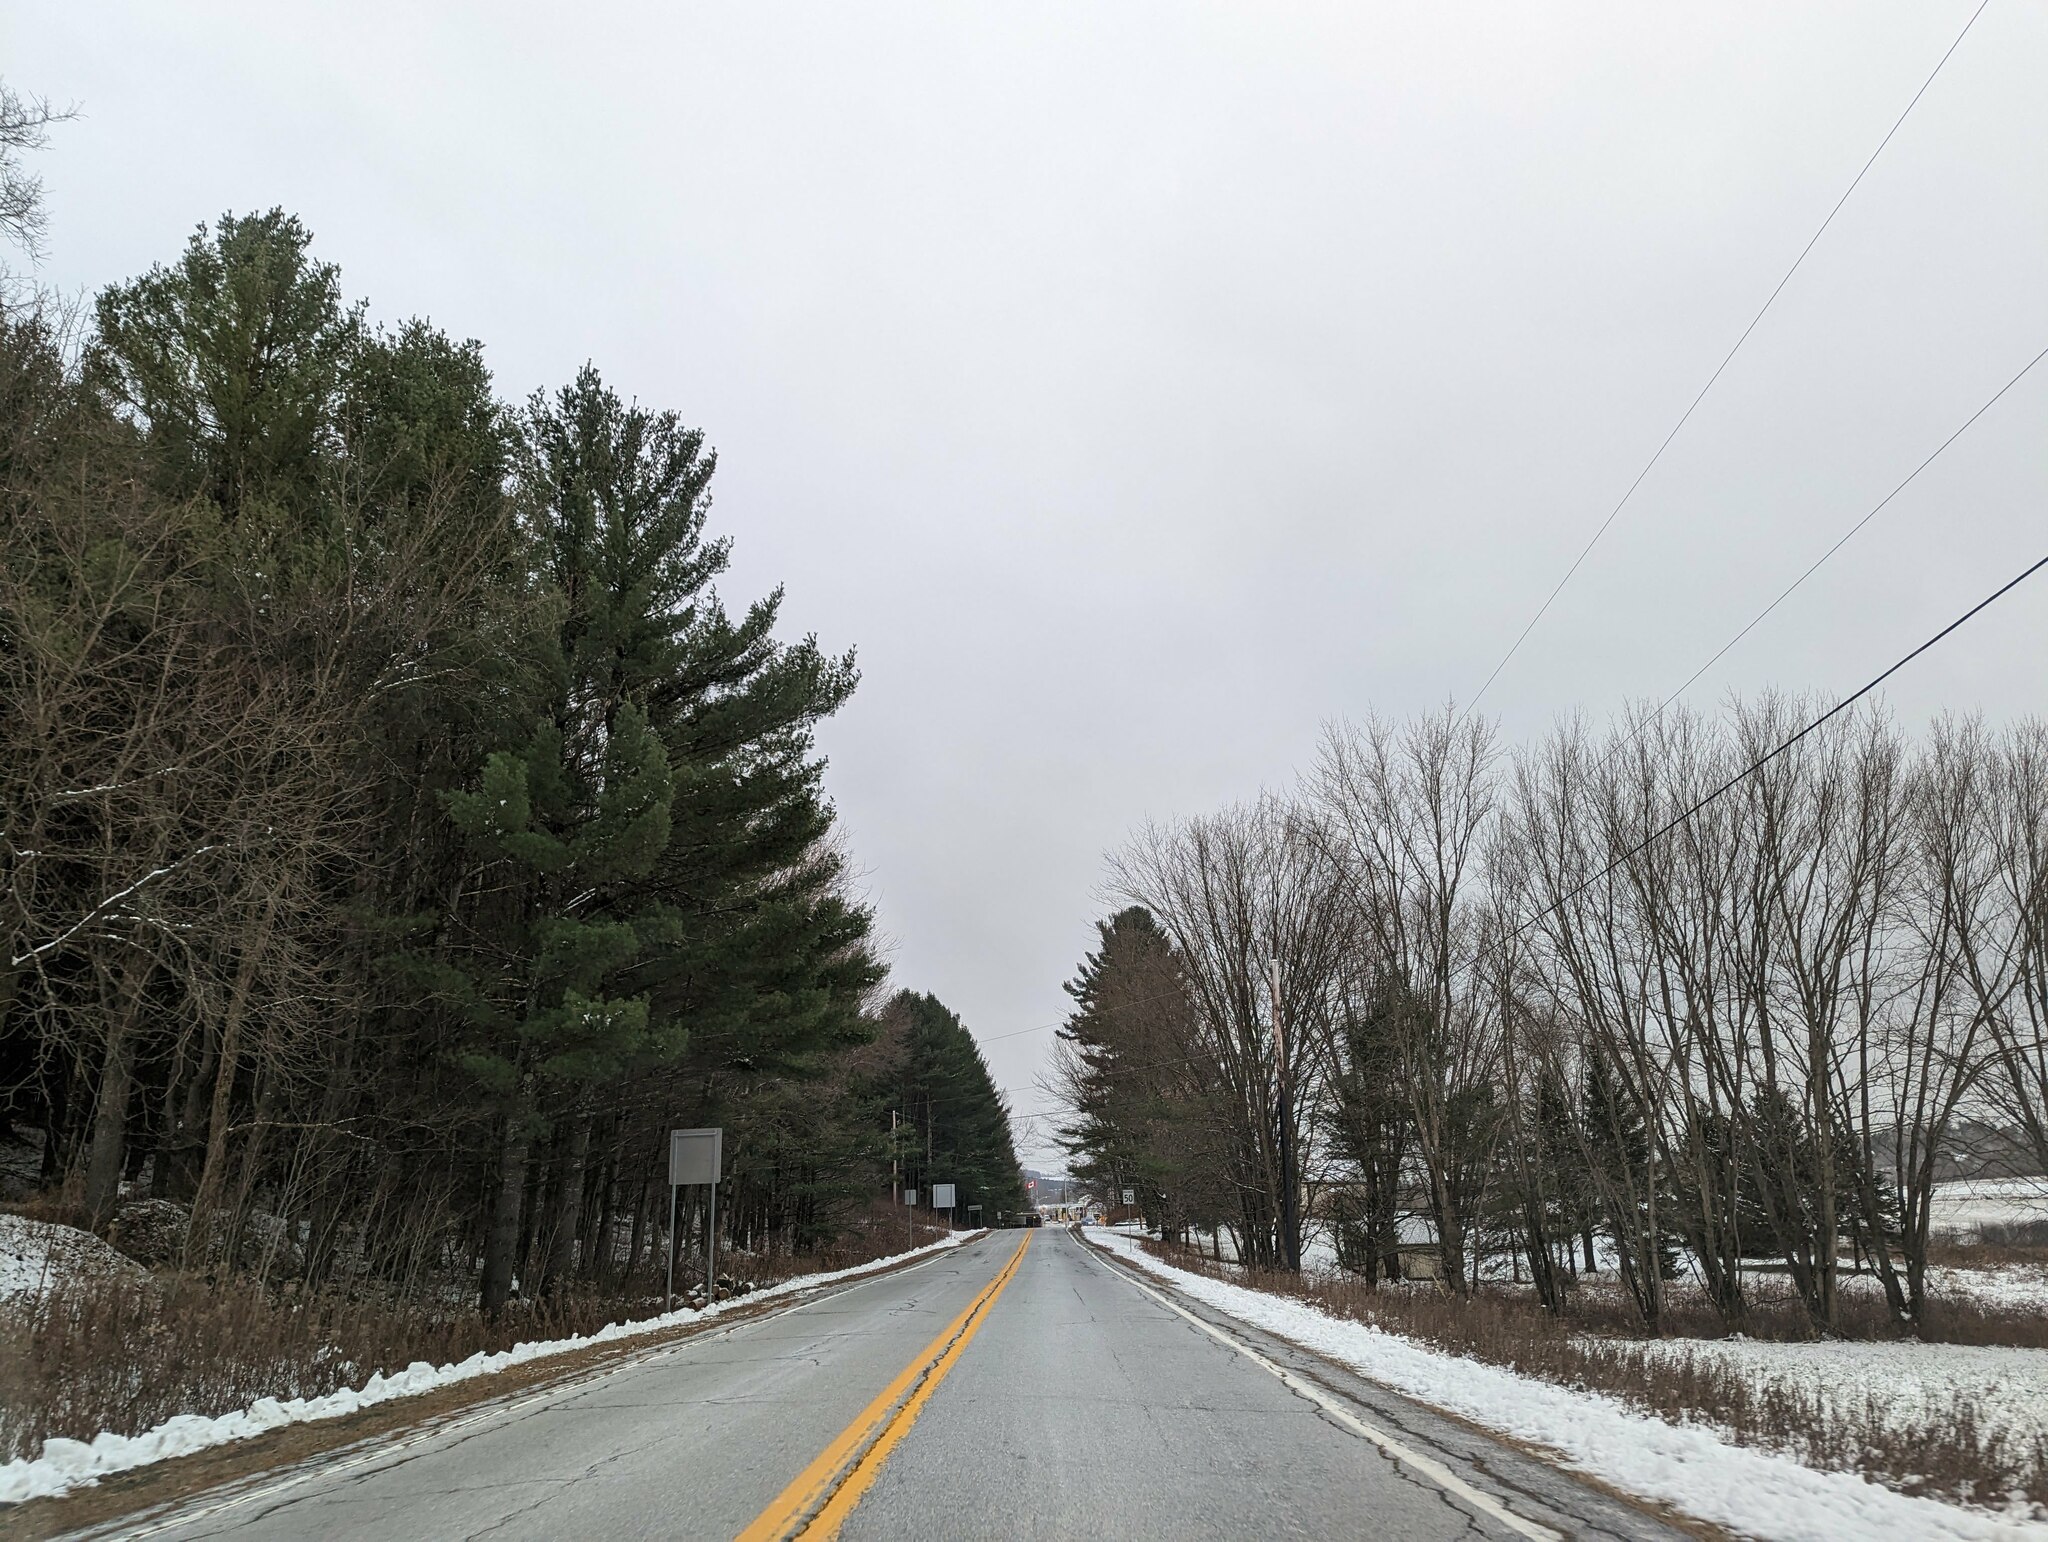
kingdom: Plantae
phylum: Tracheophyta
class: Pinopsida
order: Pinales
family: Pinaceae
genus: Pinus
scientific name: Pinus strobus
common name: Weymouth pine
